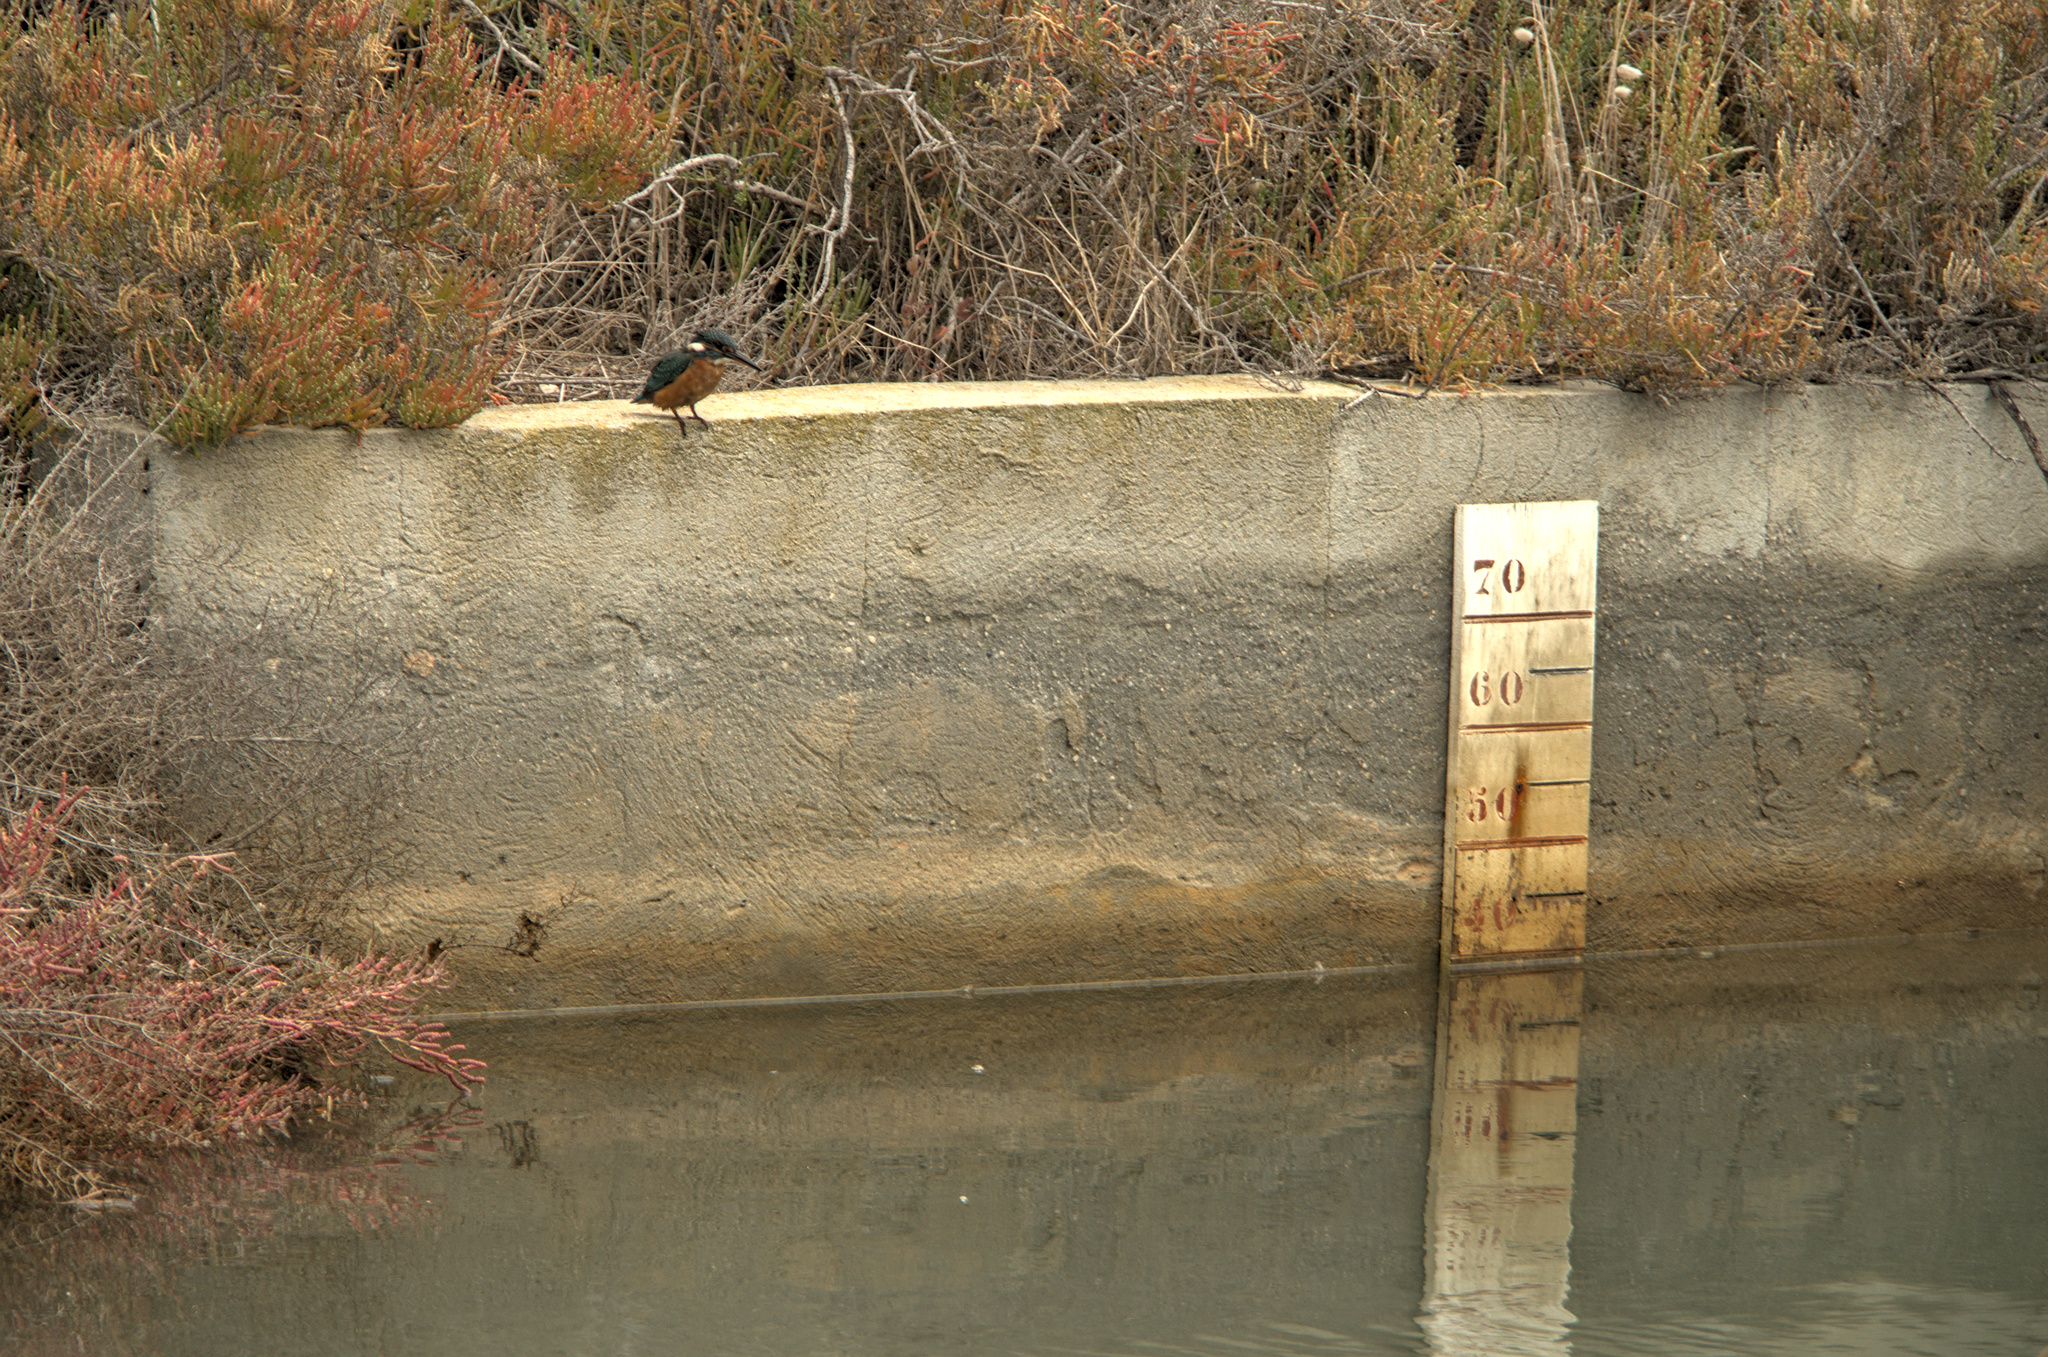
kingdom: Animalia
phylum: Chordata
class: Aves
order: Coraciiformes
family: Alcedinidae
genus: Alcedo
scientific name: Alcedo atthis
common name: Common kingfisher
